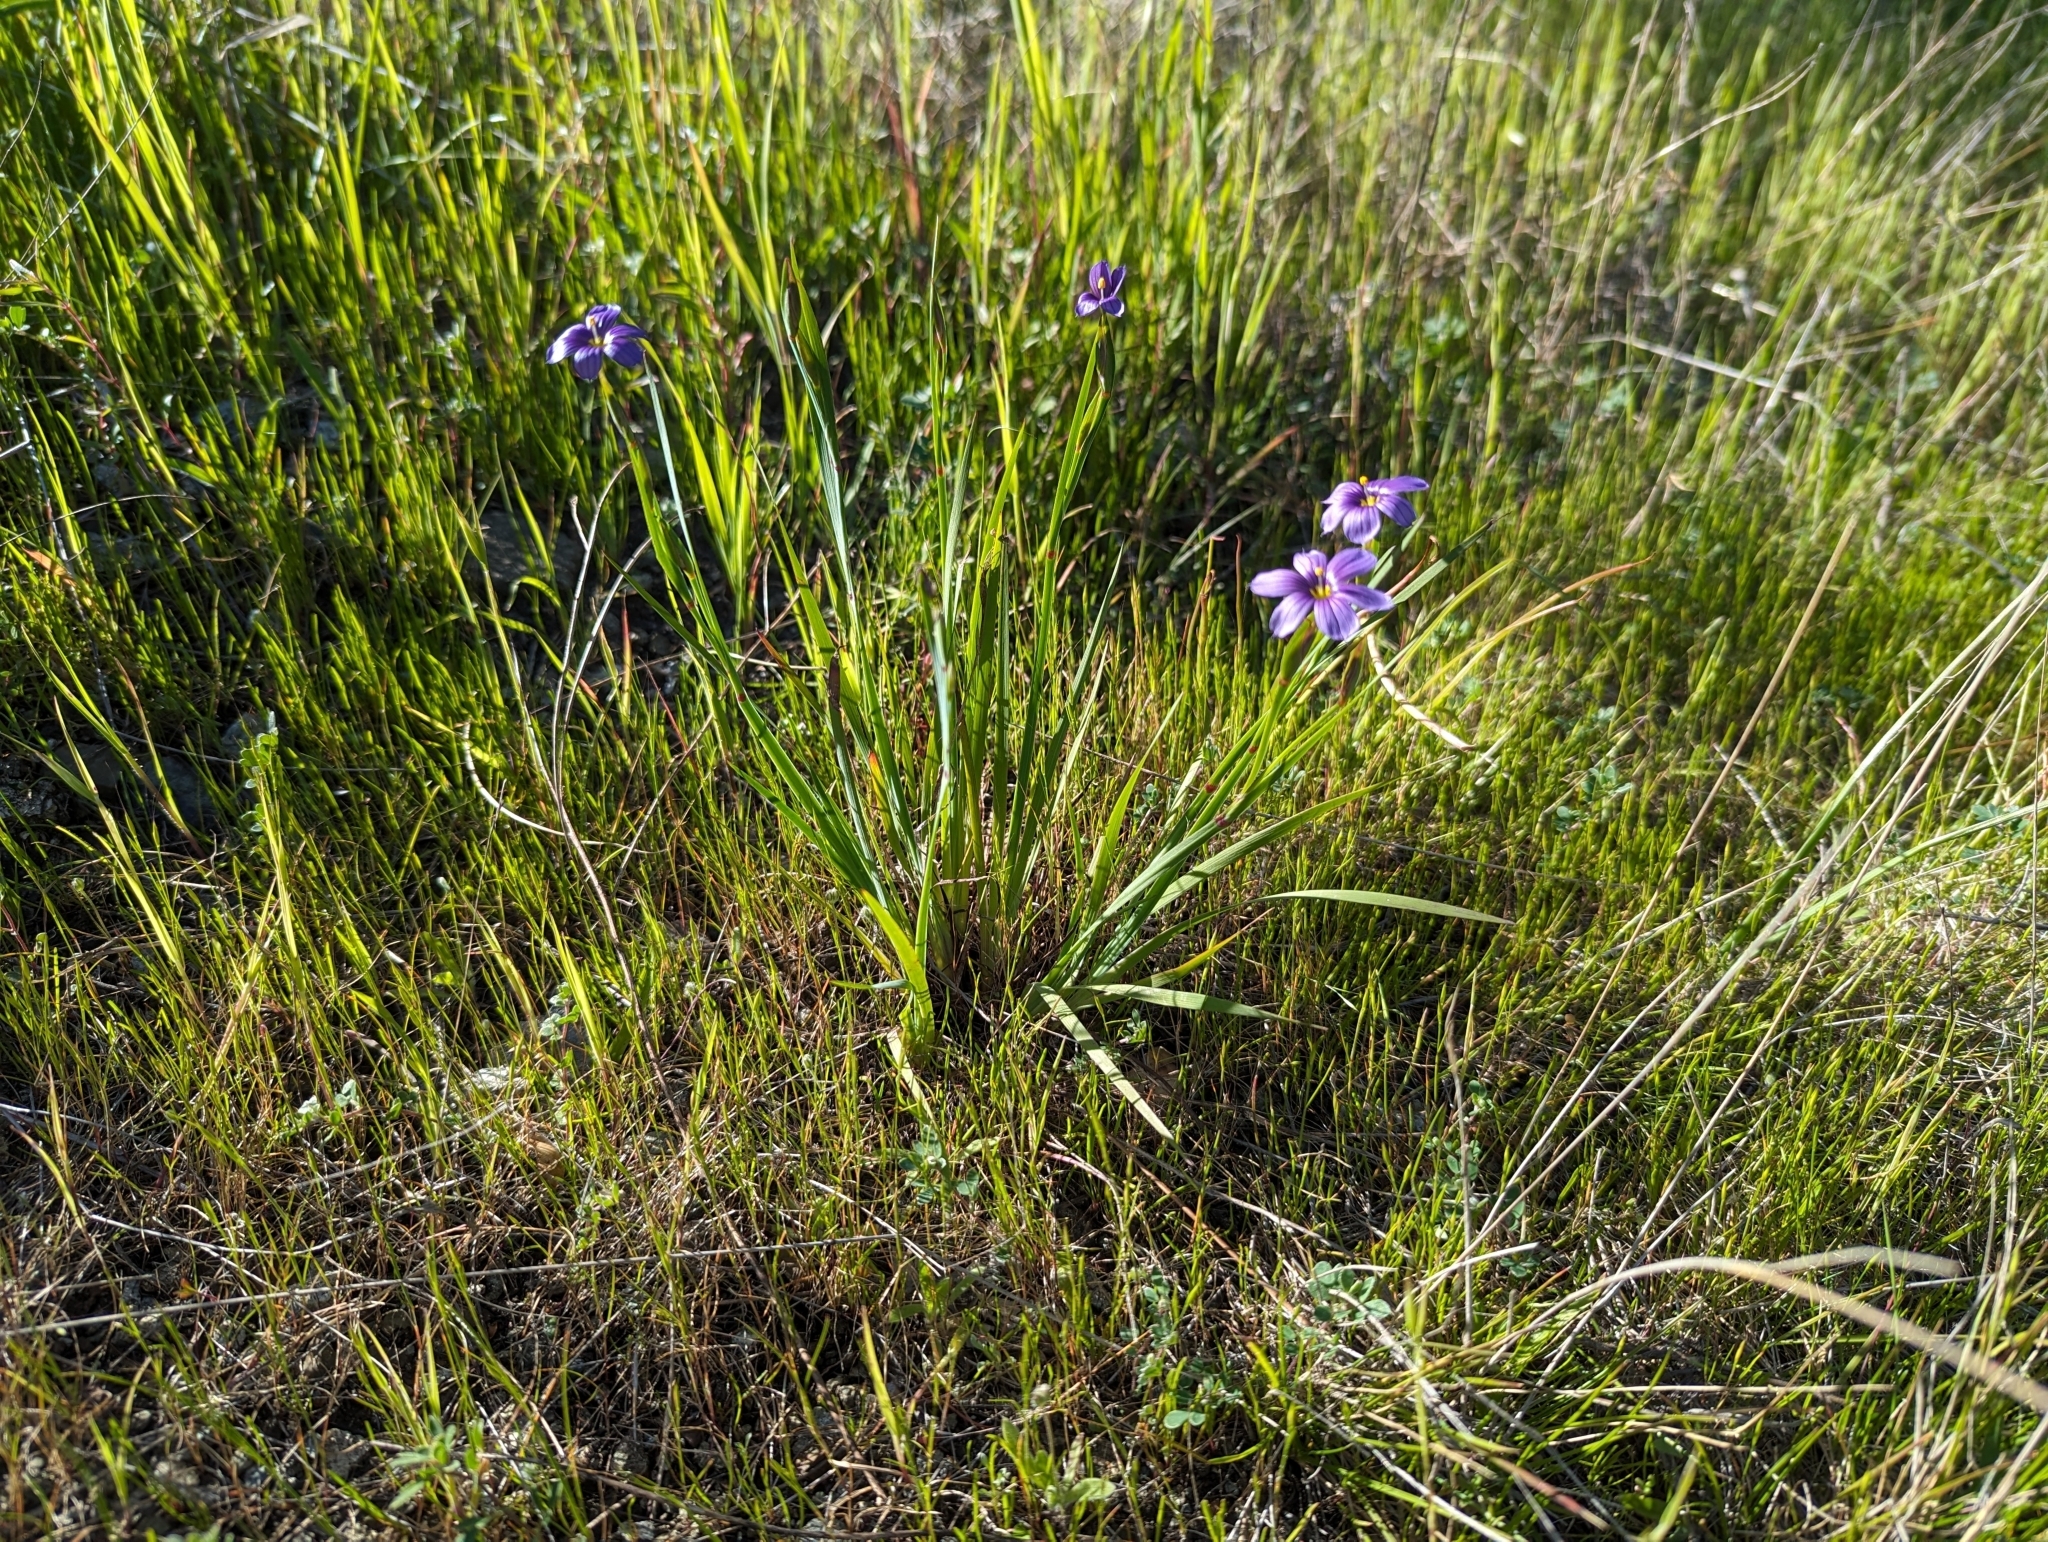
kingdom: Plantae
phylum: Tracheophyta
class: Liliopsida
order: Asparagales
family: Iridaceae
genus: Sisyrinchium
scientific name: Sisyrinchium bellum
